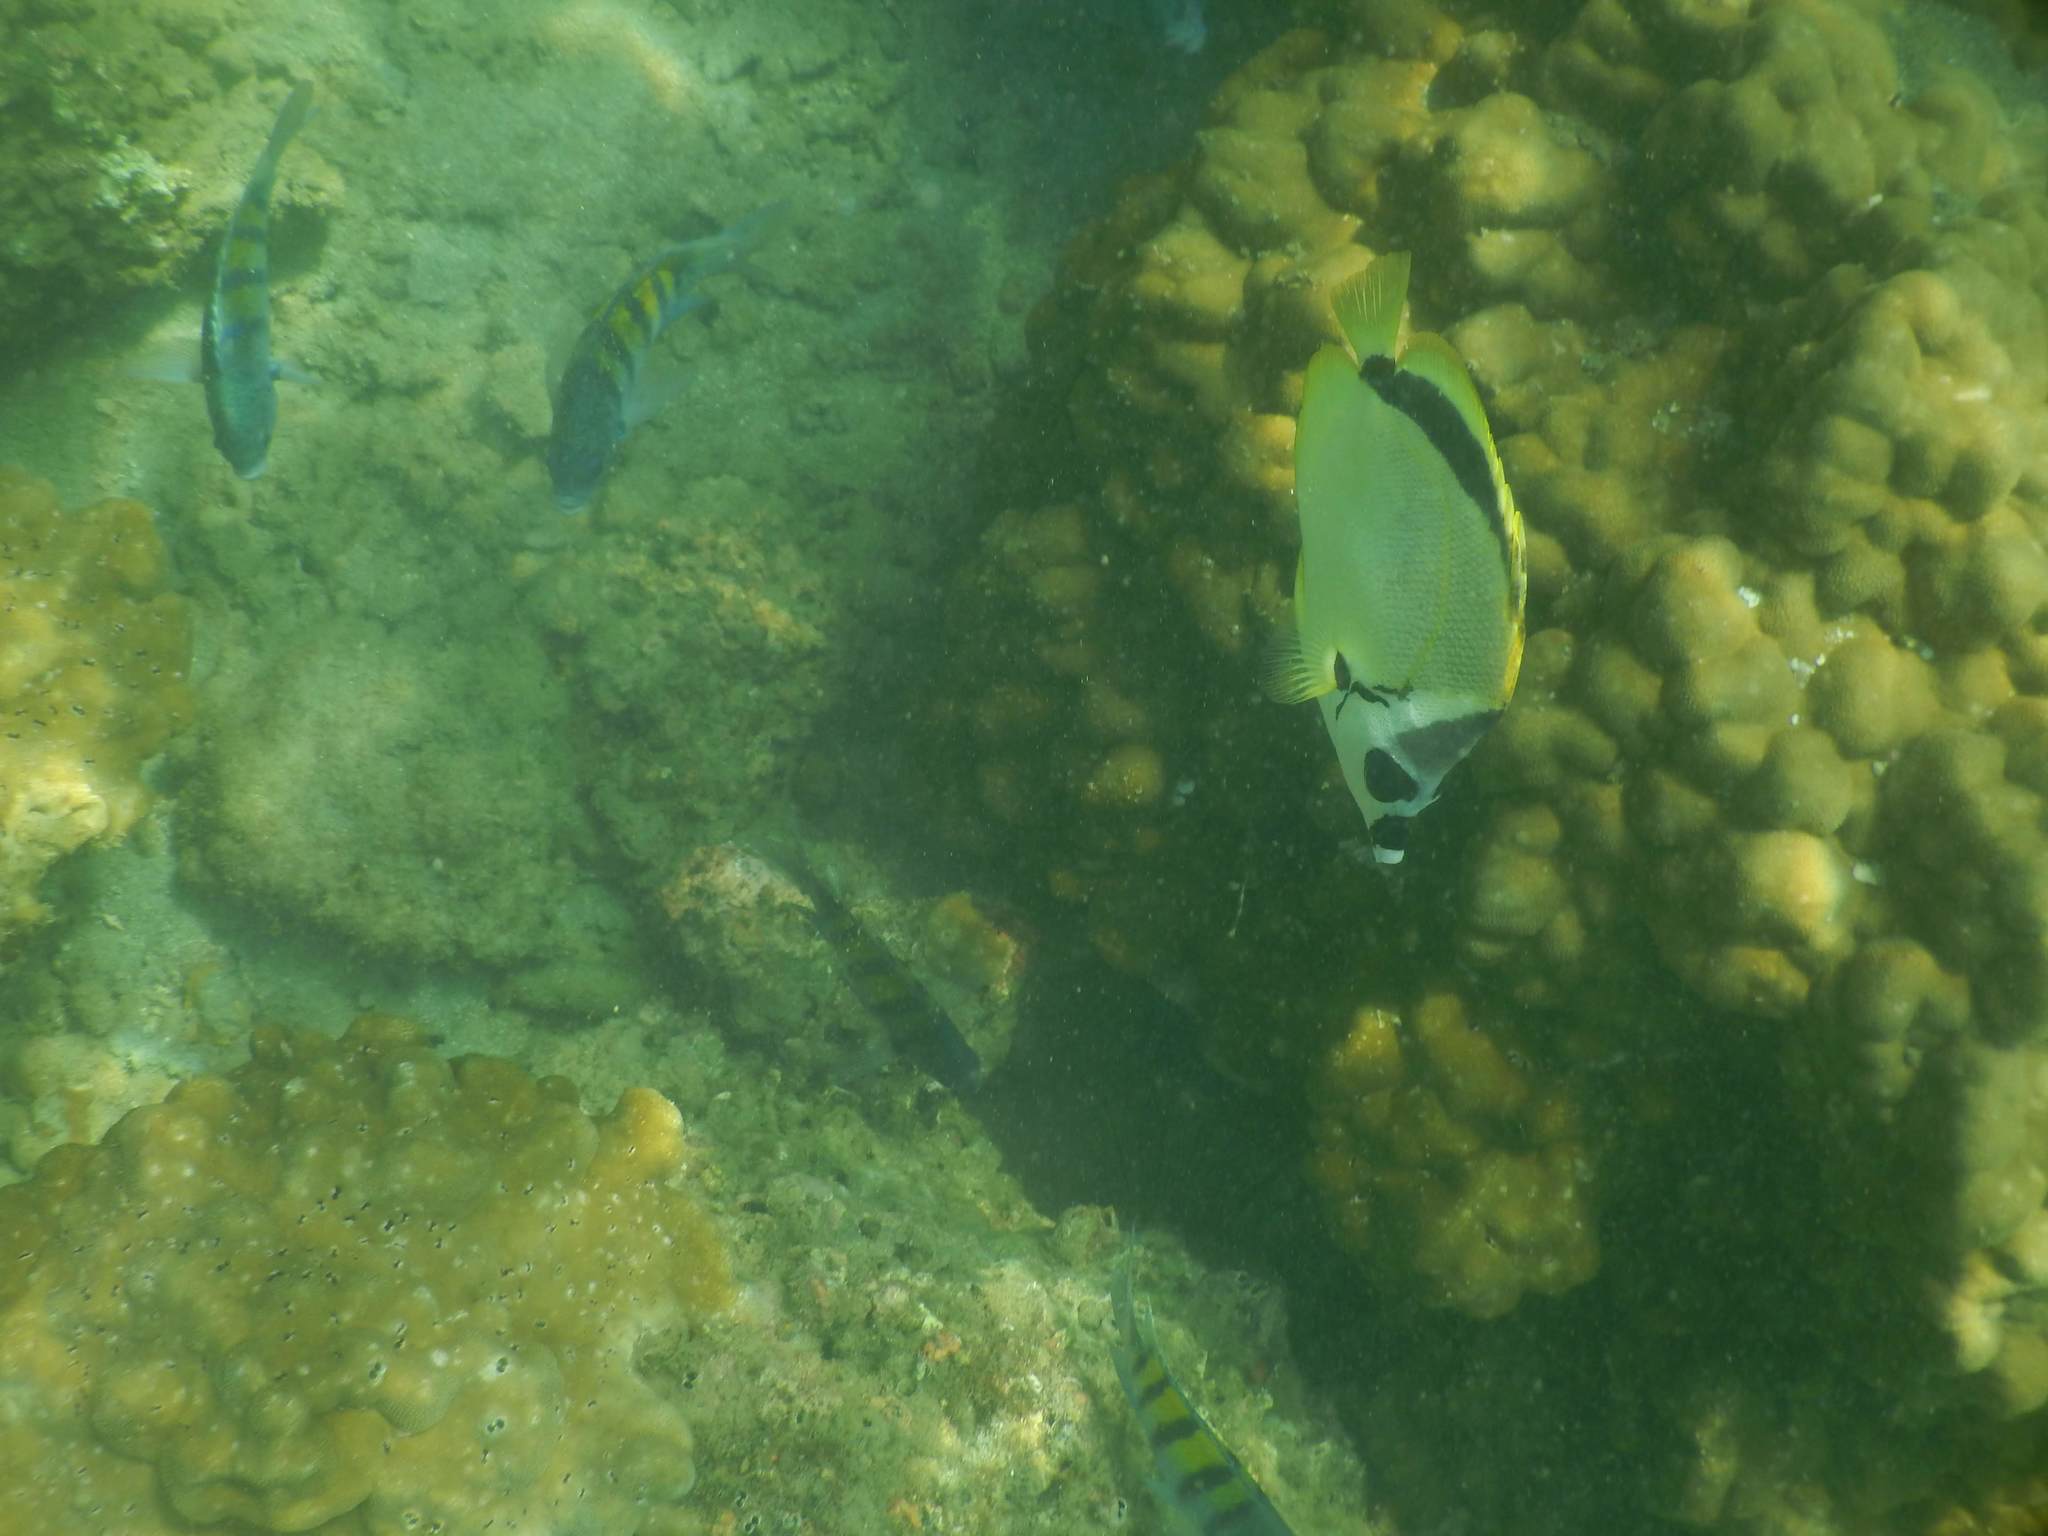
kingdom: Animalia
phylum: Chordata
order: Perciformes
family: Chaetodontidae
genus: Johnrandallia
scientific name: Johnrandallia nigrirostris
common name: Barberfish
